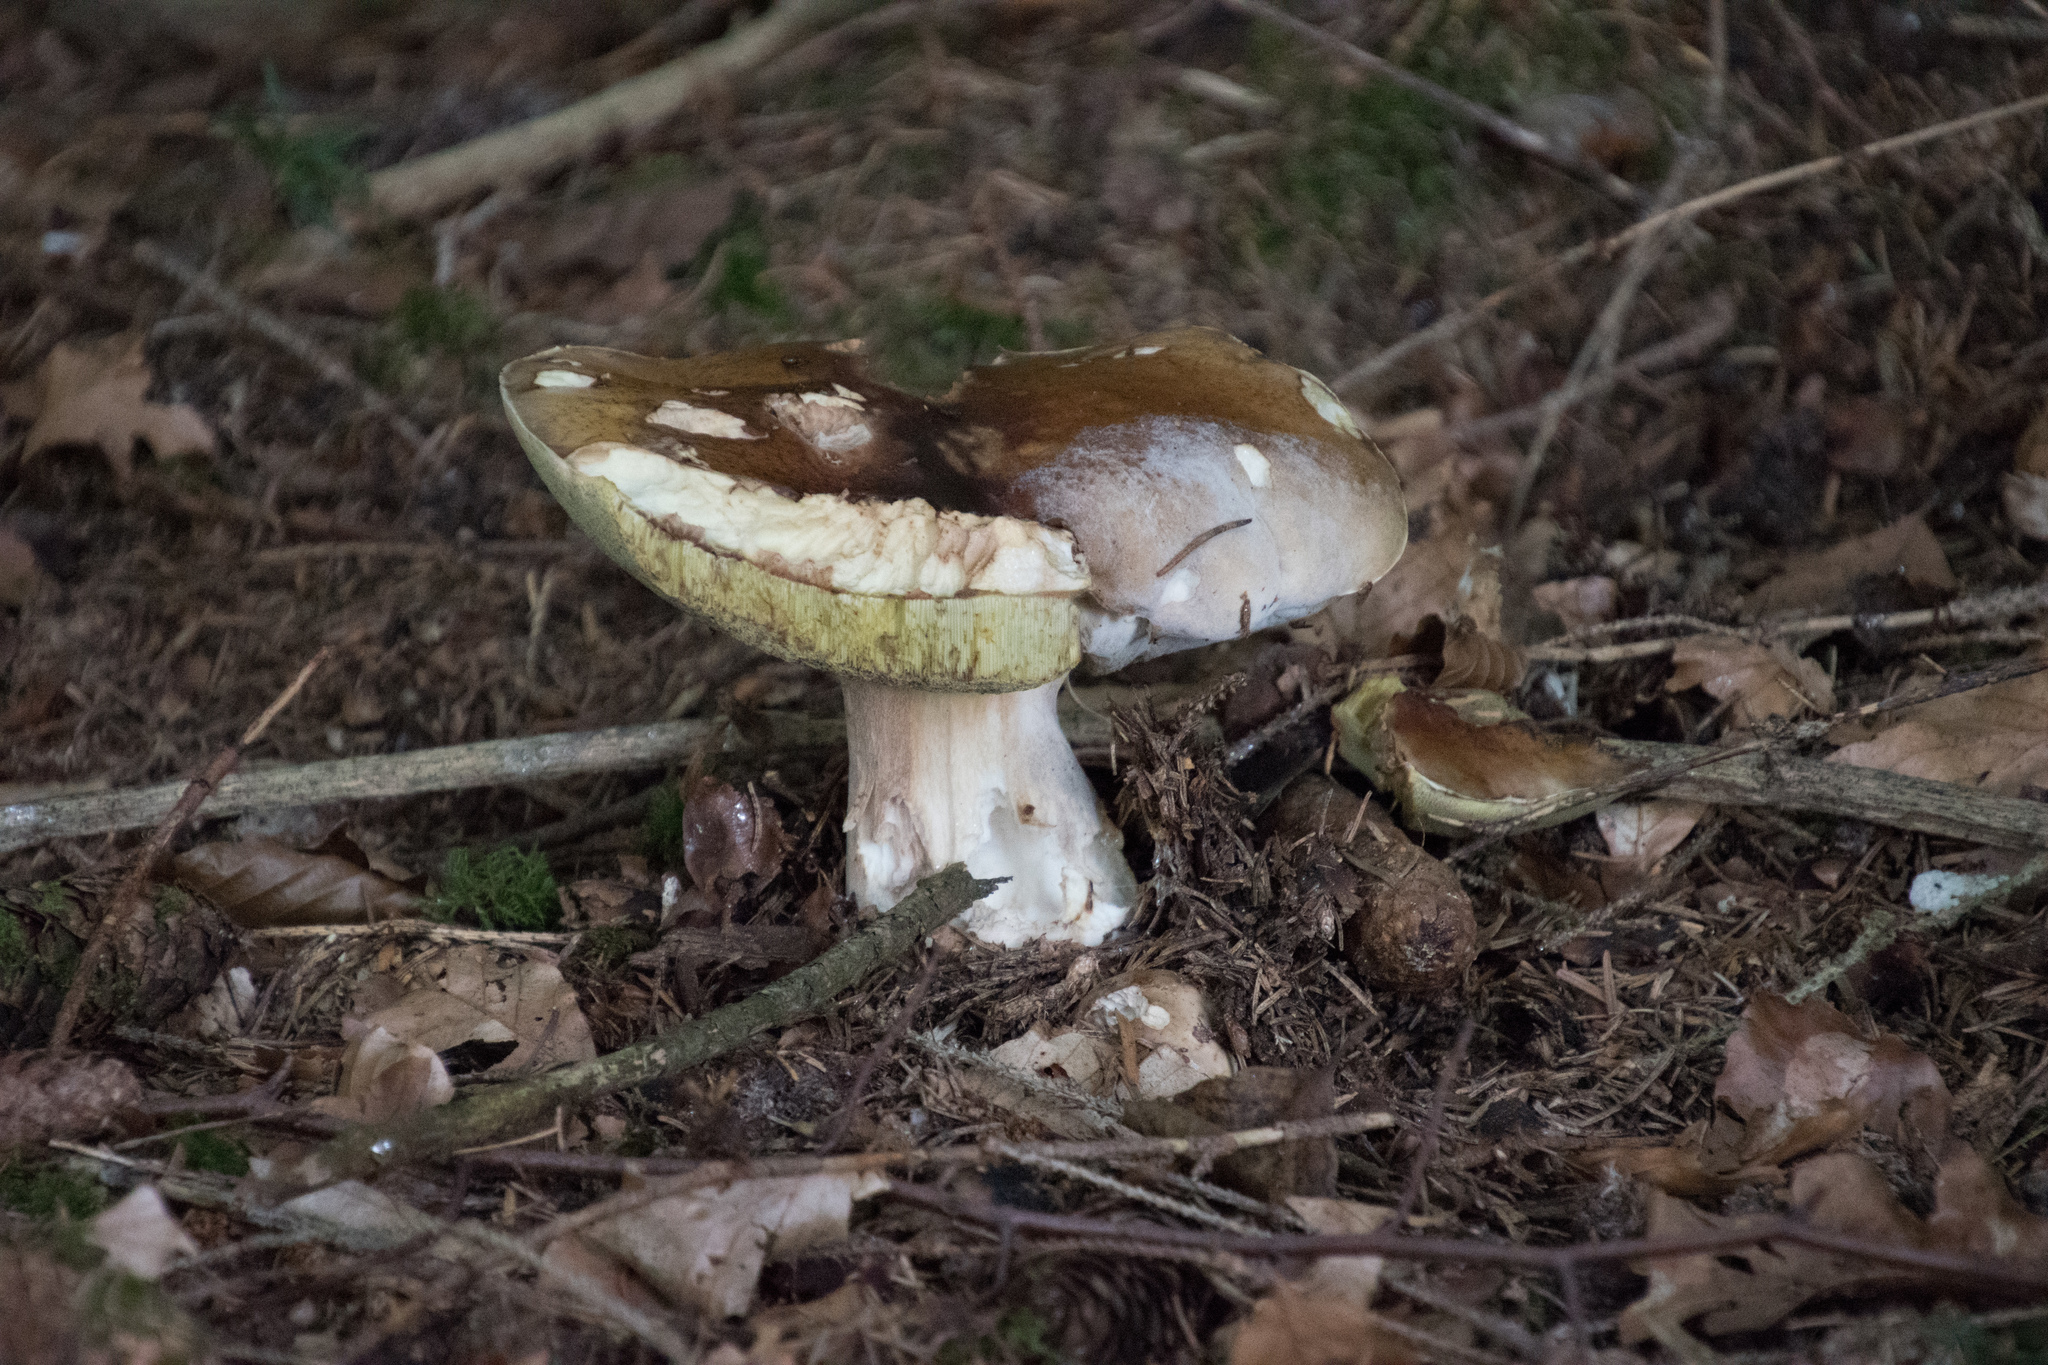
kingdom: Fungi
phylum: Basidiomycota
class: Agaricomycetes
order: Boletales
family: Boletaceae
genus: Boletus
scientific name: Boletus edulis
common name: Cep
